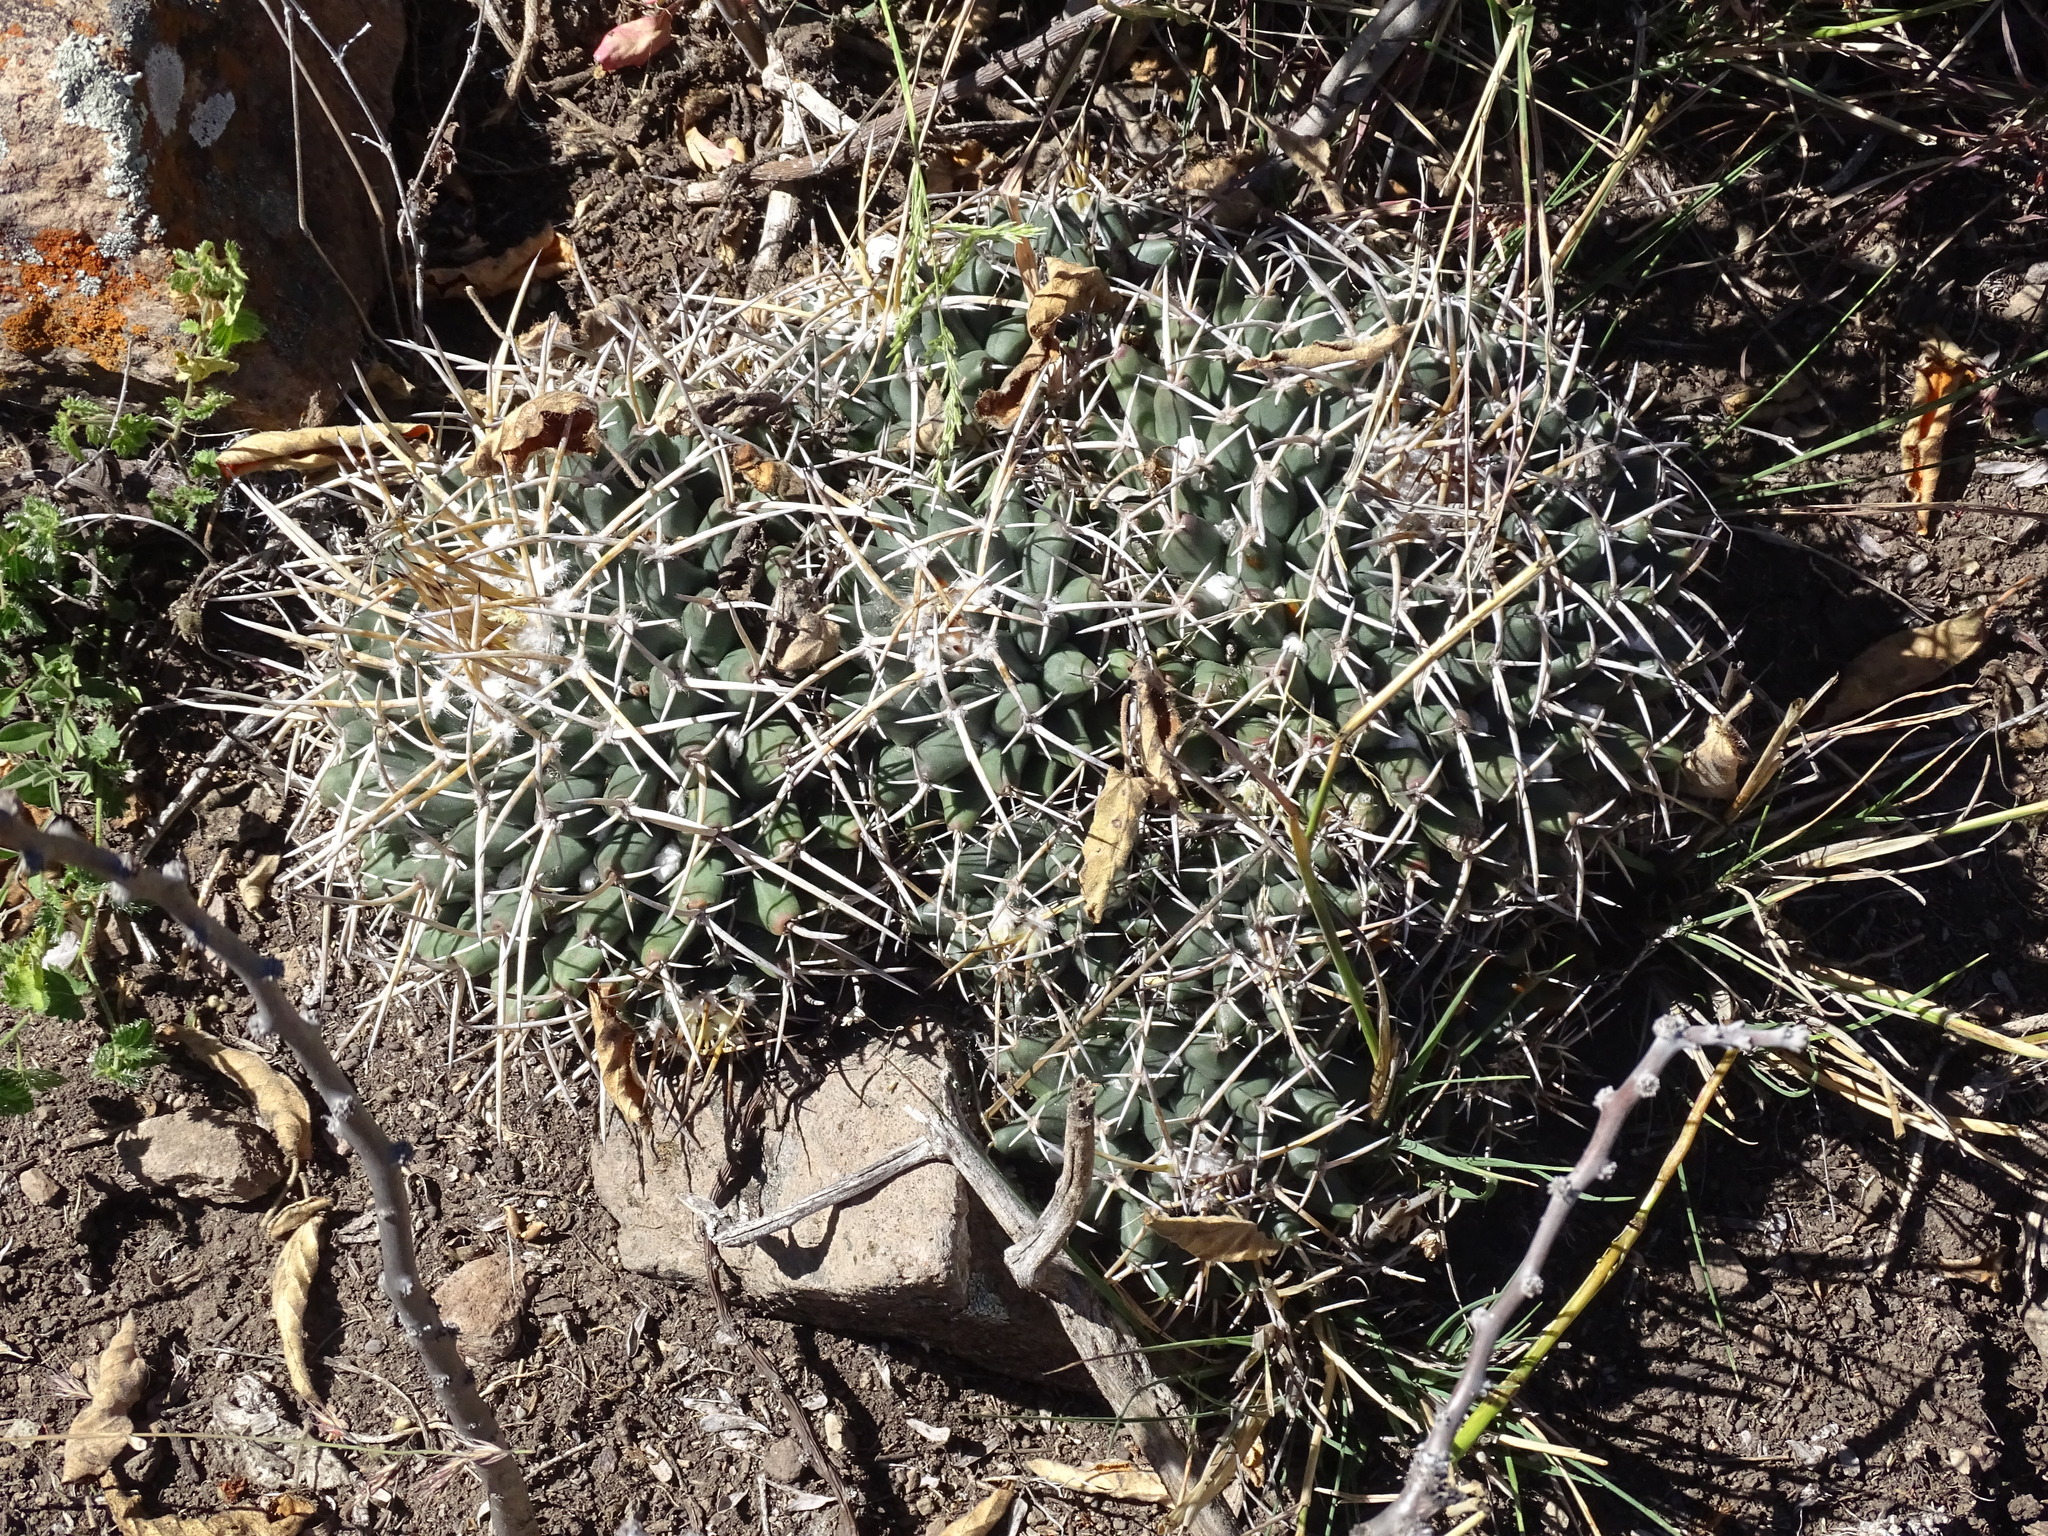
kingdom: Plantae
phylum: Tracheophyta
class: Magnoliopsida
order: Caryophyllales
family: Cactaceae
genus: Mammillaria
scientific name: Mammillaria magnimamma
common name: Mexican pincushion
